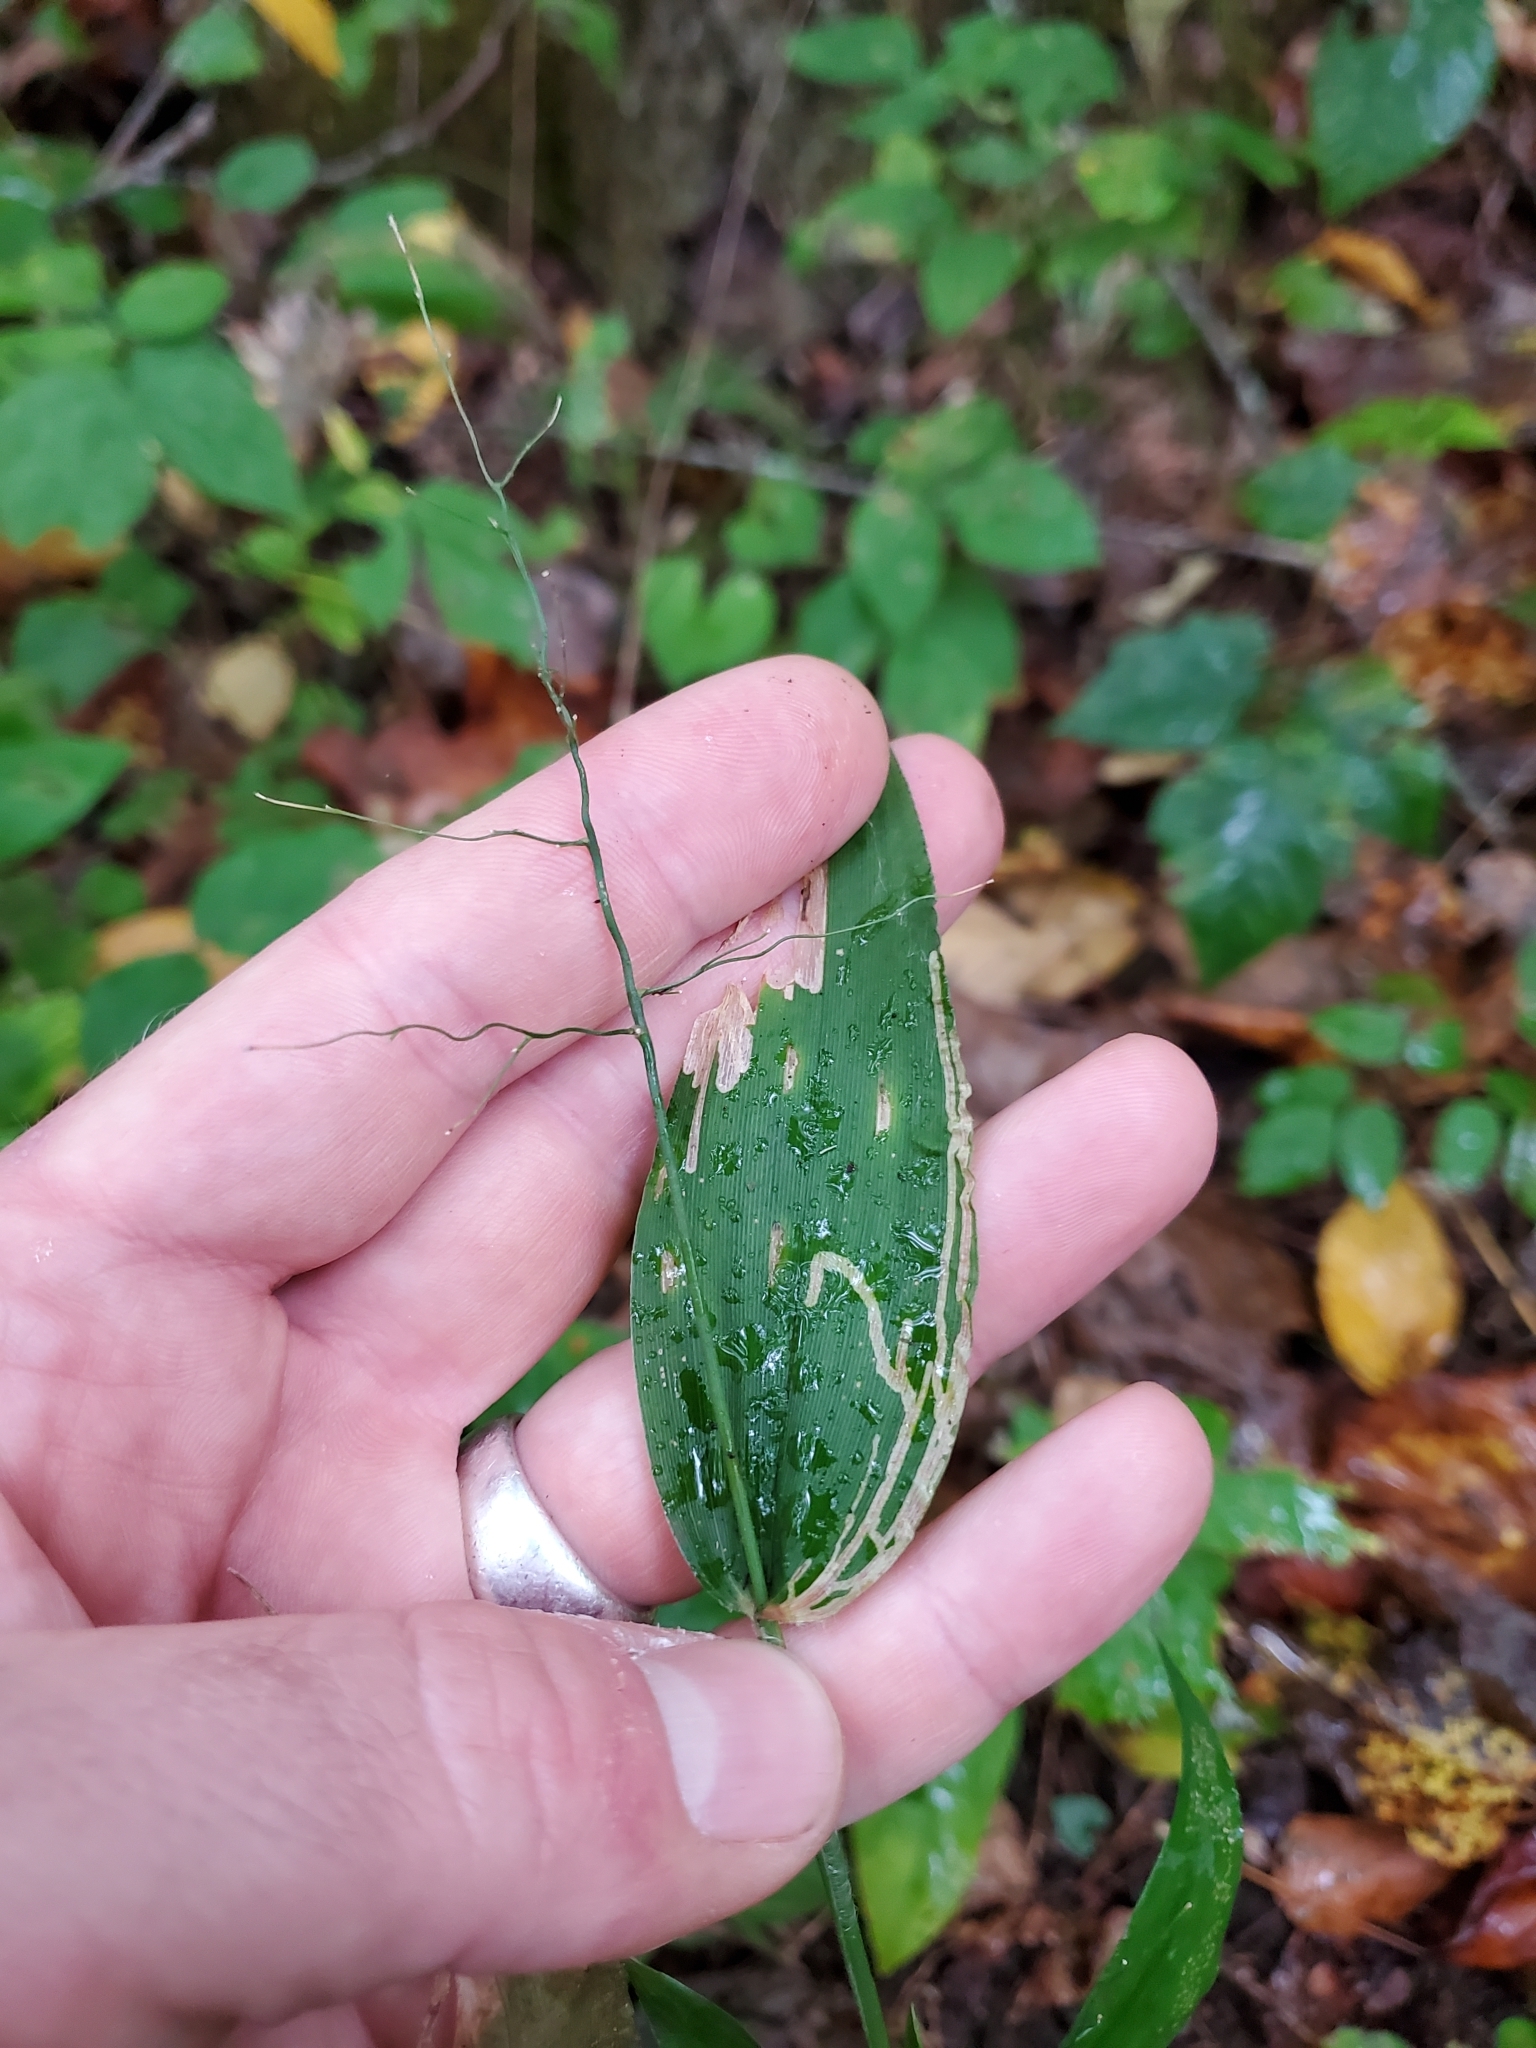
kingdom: Plantae
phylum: Tracheophyta
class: Liliopsida
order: Poales
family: Poaceae
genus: Dichanthelium
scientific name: Dichanthelium boscii
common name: Bosc's panic grass
